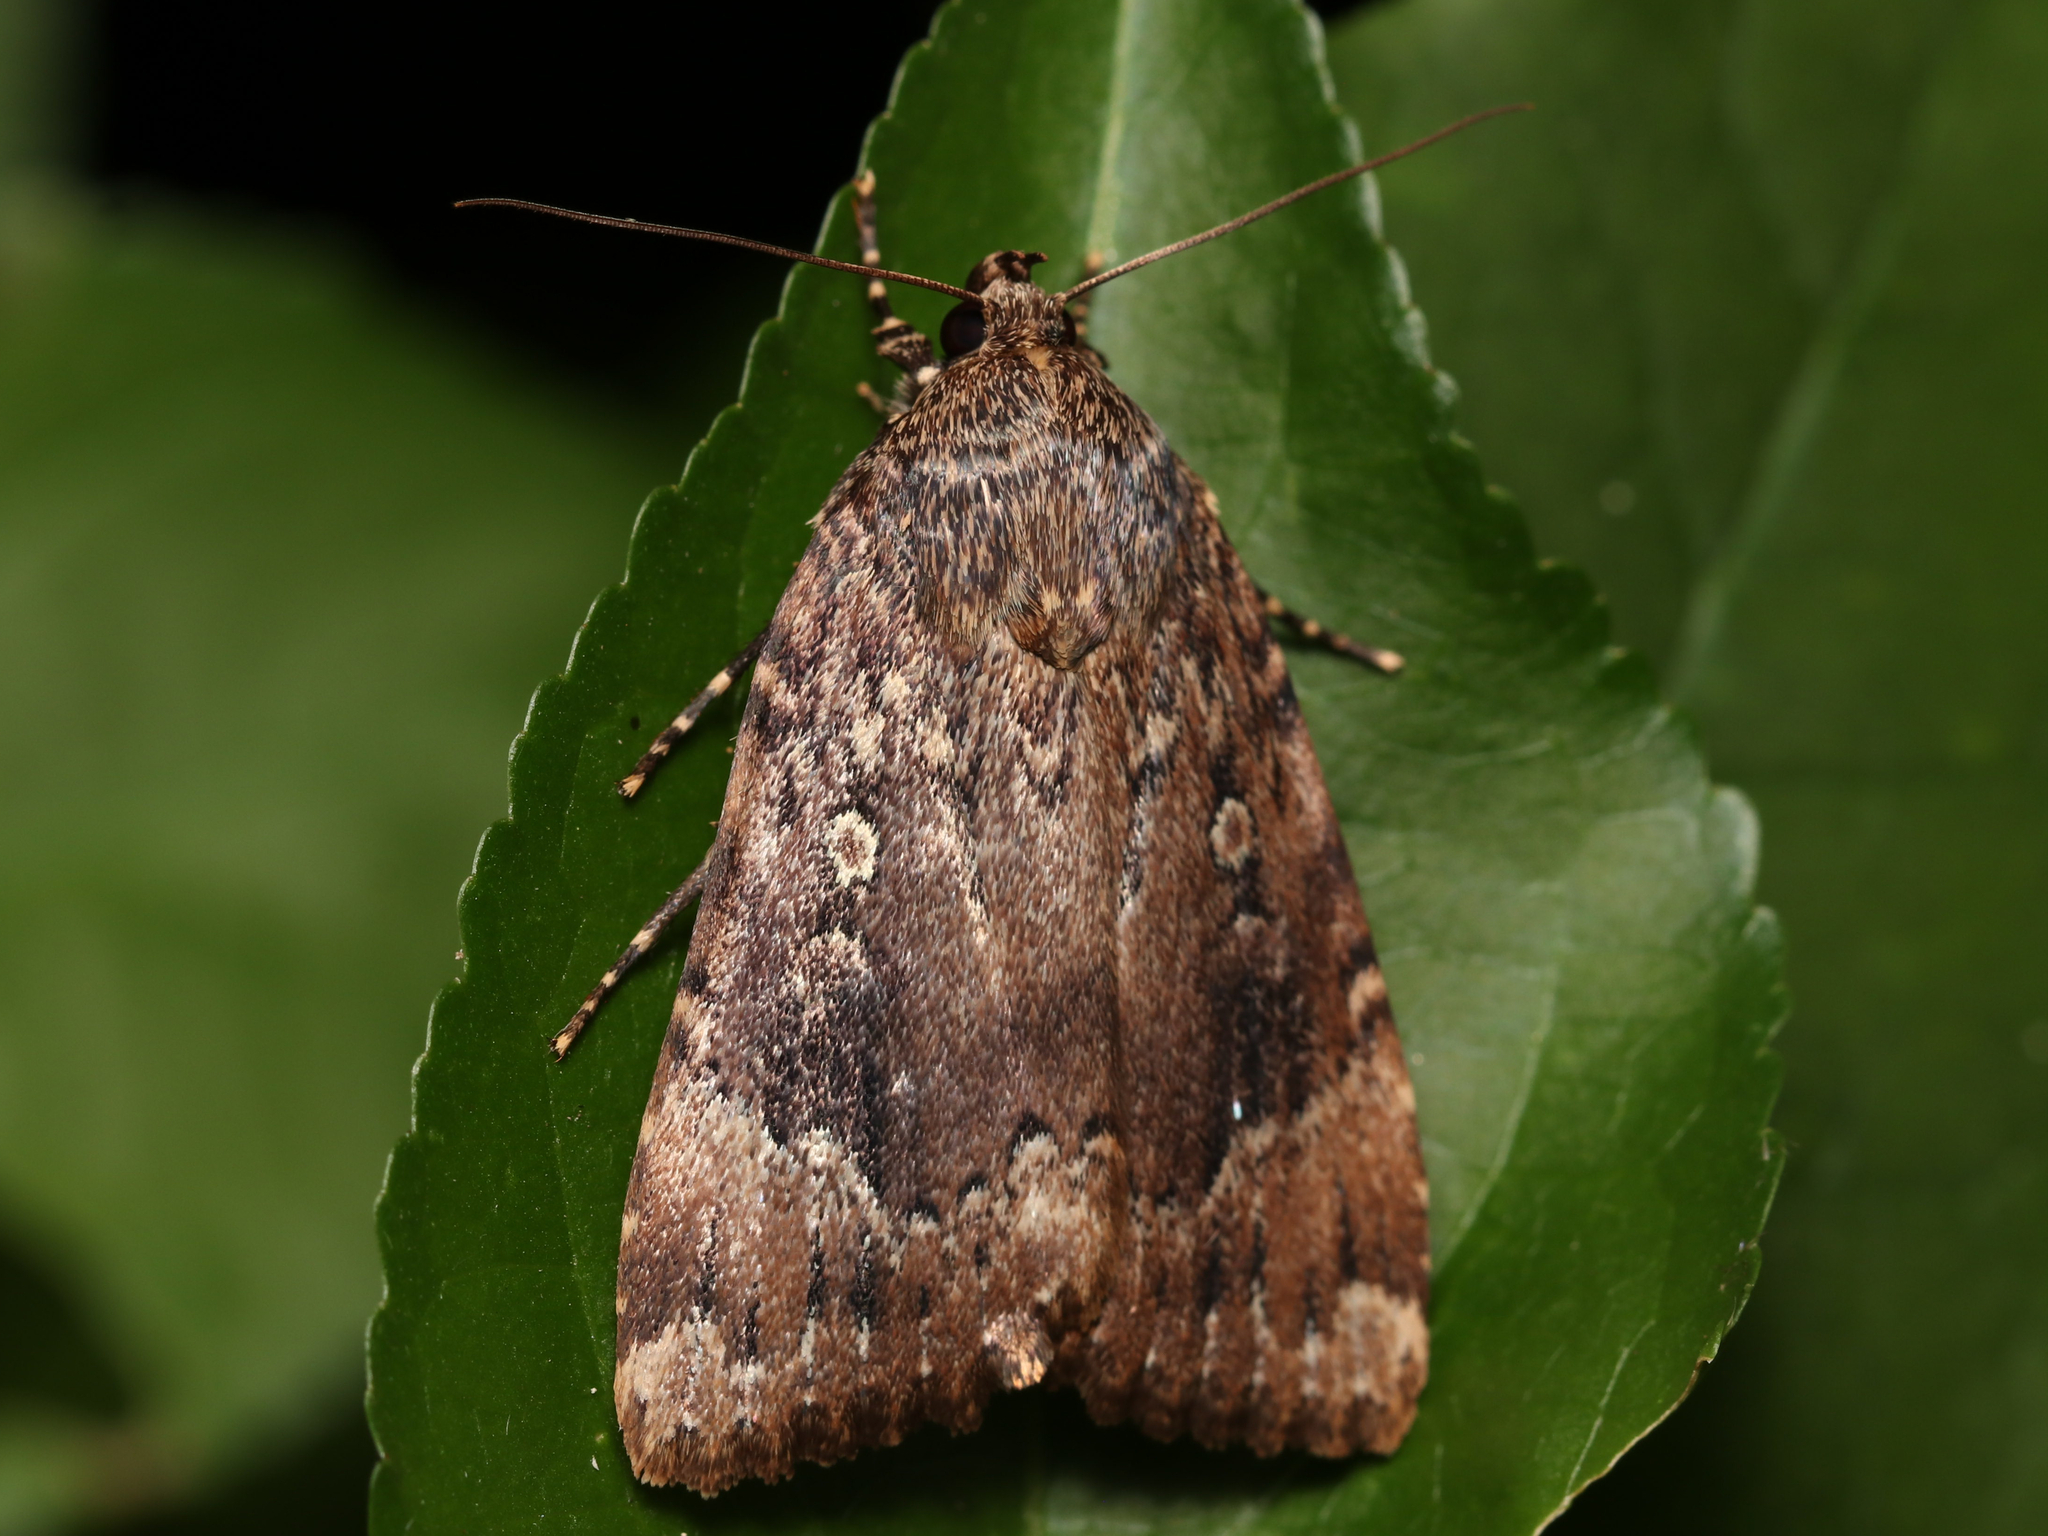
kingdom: Animalia
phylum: Arthropoda
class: Insecta
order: Lepidoptera
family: Noctuidae
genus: Amphipyra
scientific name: Amphipyra pyramidoides
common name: American copper underwing
